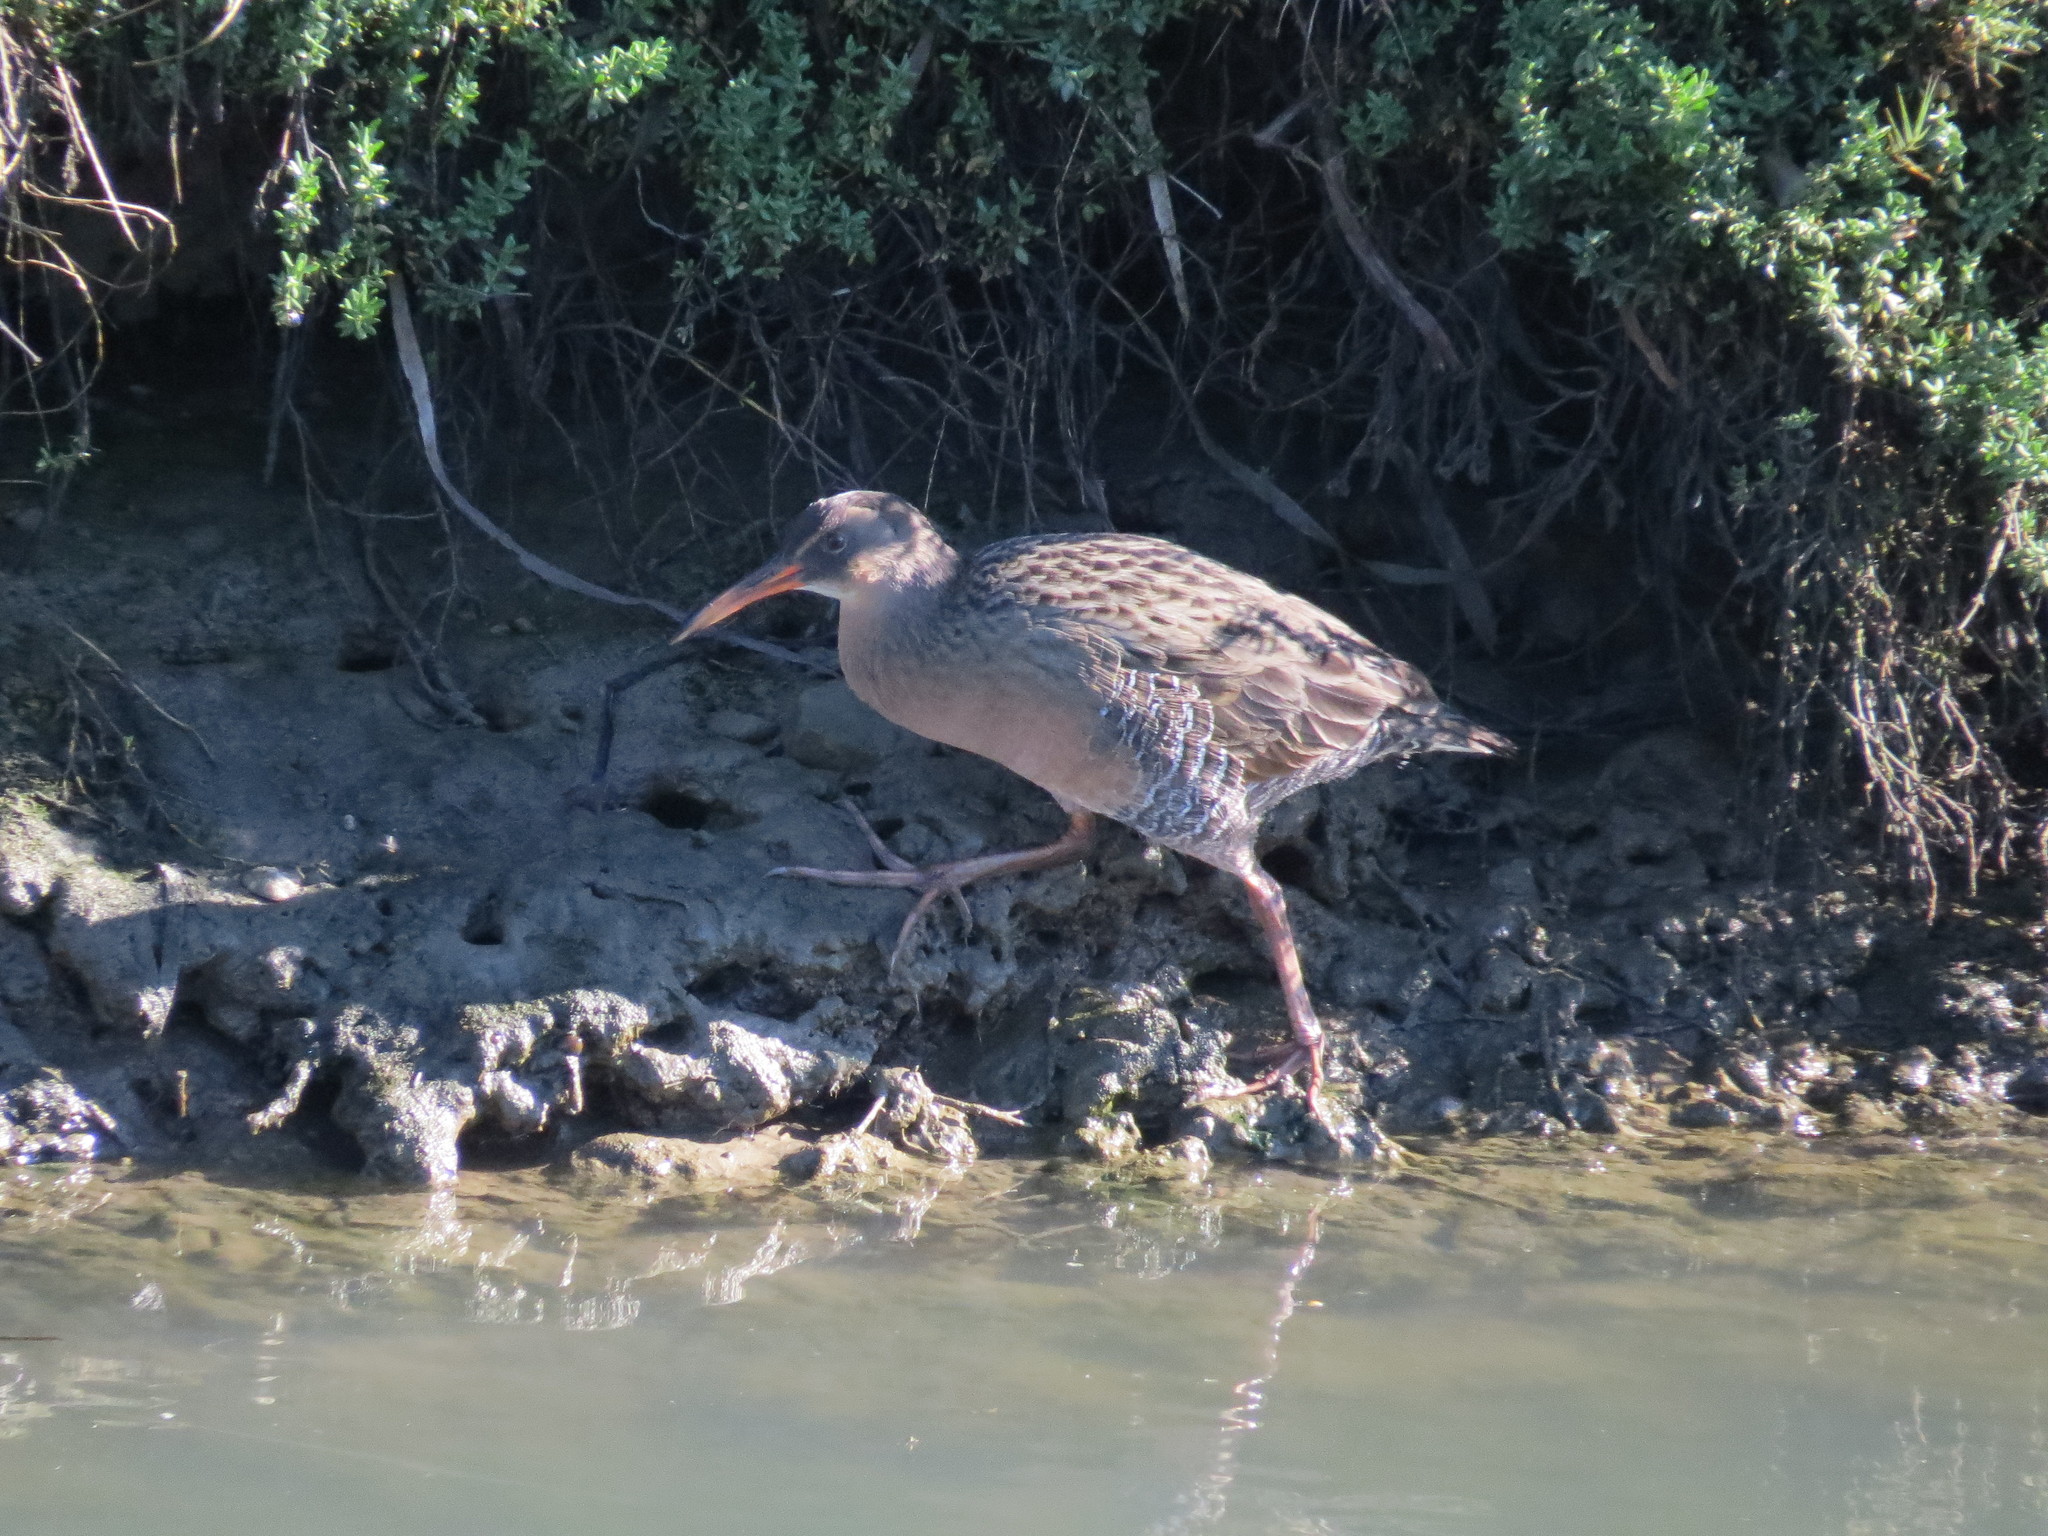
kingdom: Animalia
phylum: Chordata
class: Aves
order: Gruiformes
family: Rallidae
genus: Rallus
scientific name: Rallus obsoletus
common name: Ridgway's rail
